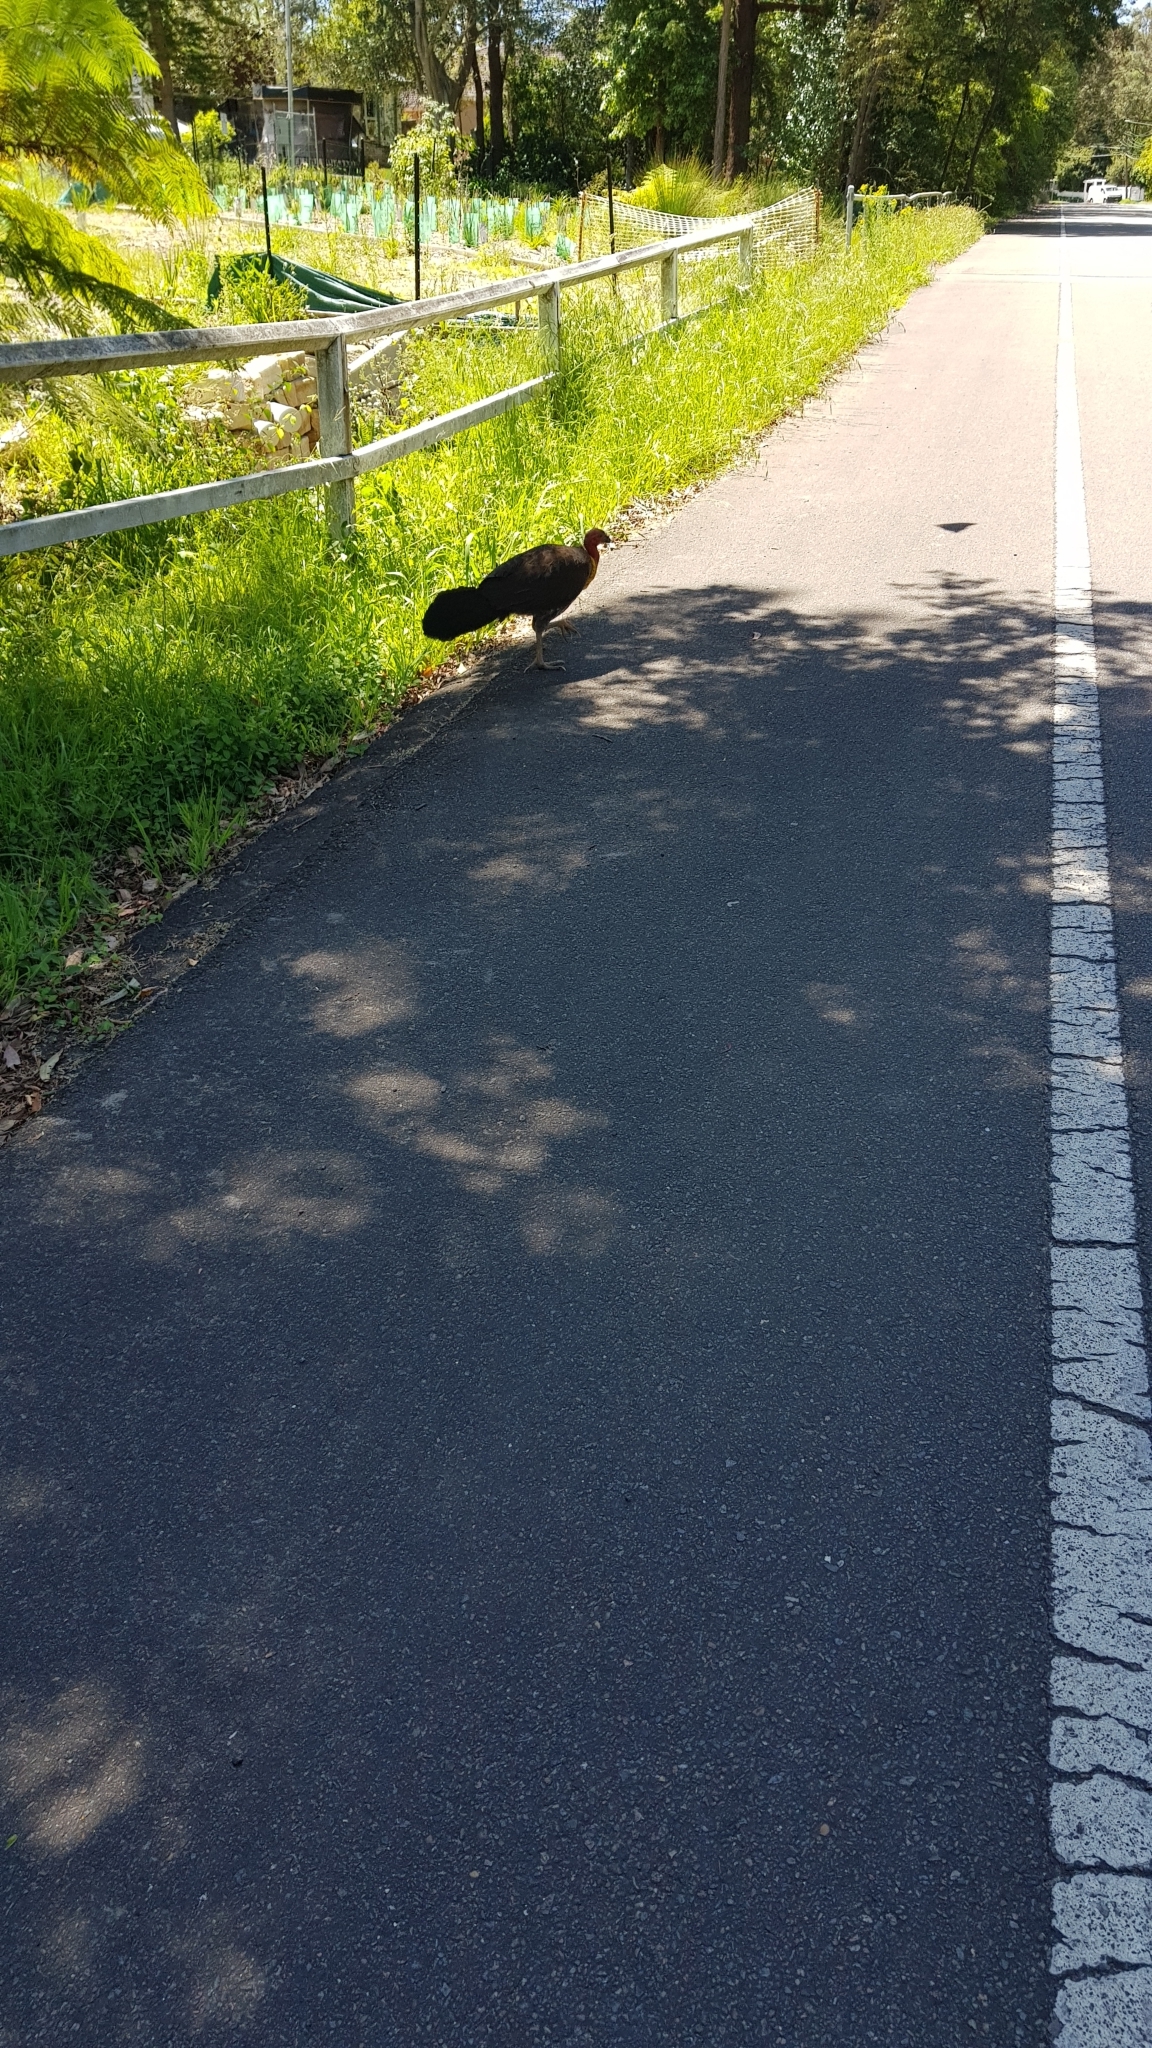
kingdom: Animalia
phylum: Chordata
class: Aves
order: Galliformes
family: Megapodiidae
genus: Alectura
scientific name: Alectura lathami
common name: Australian brushturkey
